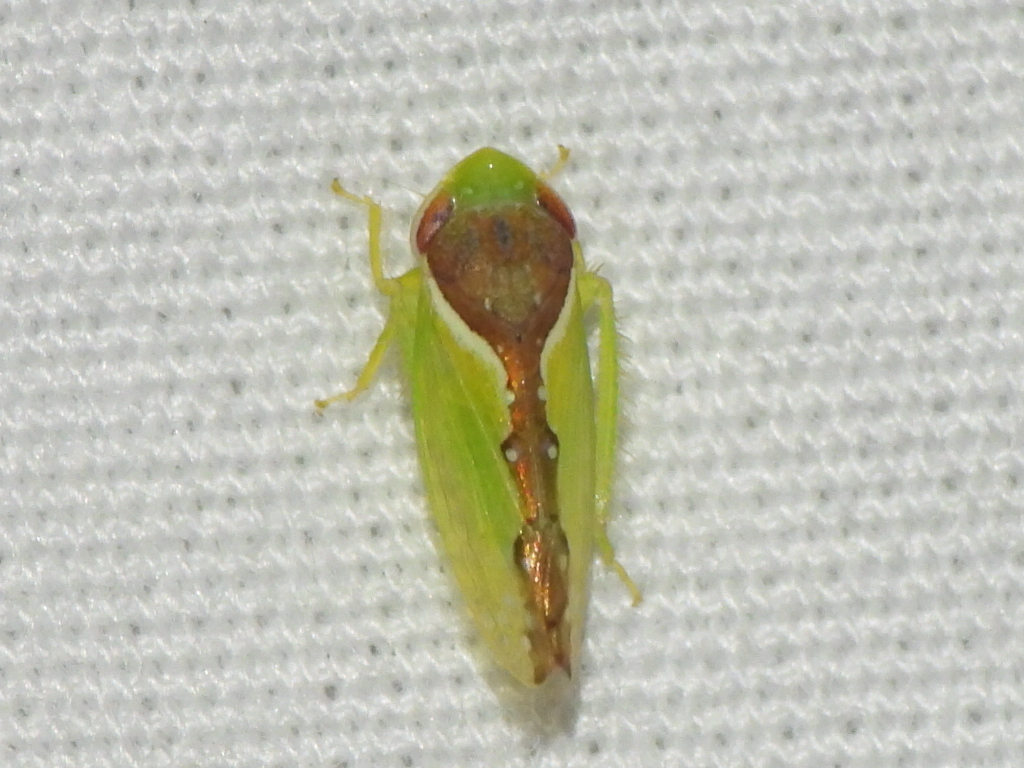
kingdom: Animalia
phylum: Arthropoda
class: Insecta
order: Hemiptera
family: Cicadellidae
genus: Omansobara ing
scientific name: Omansobara ing Omansobara palliolata
